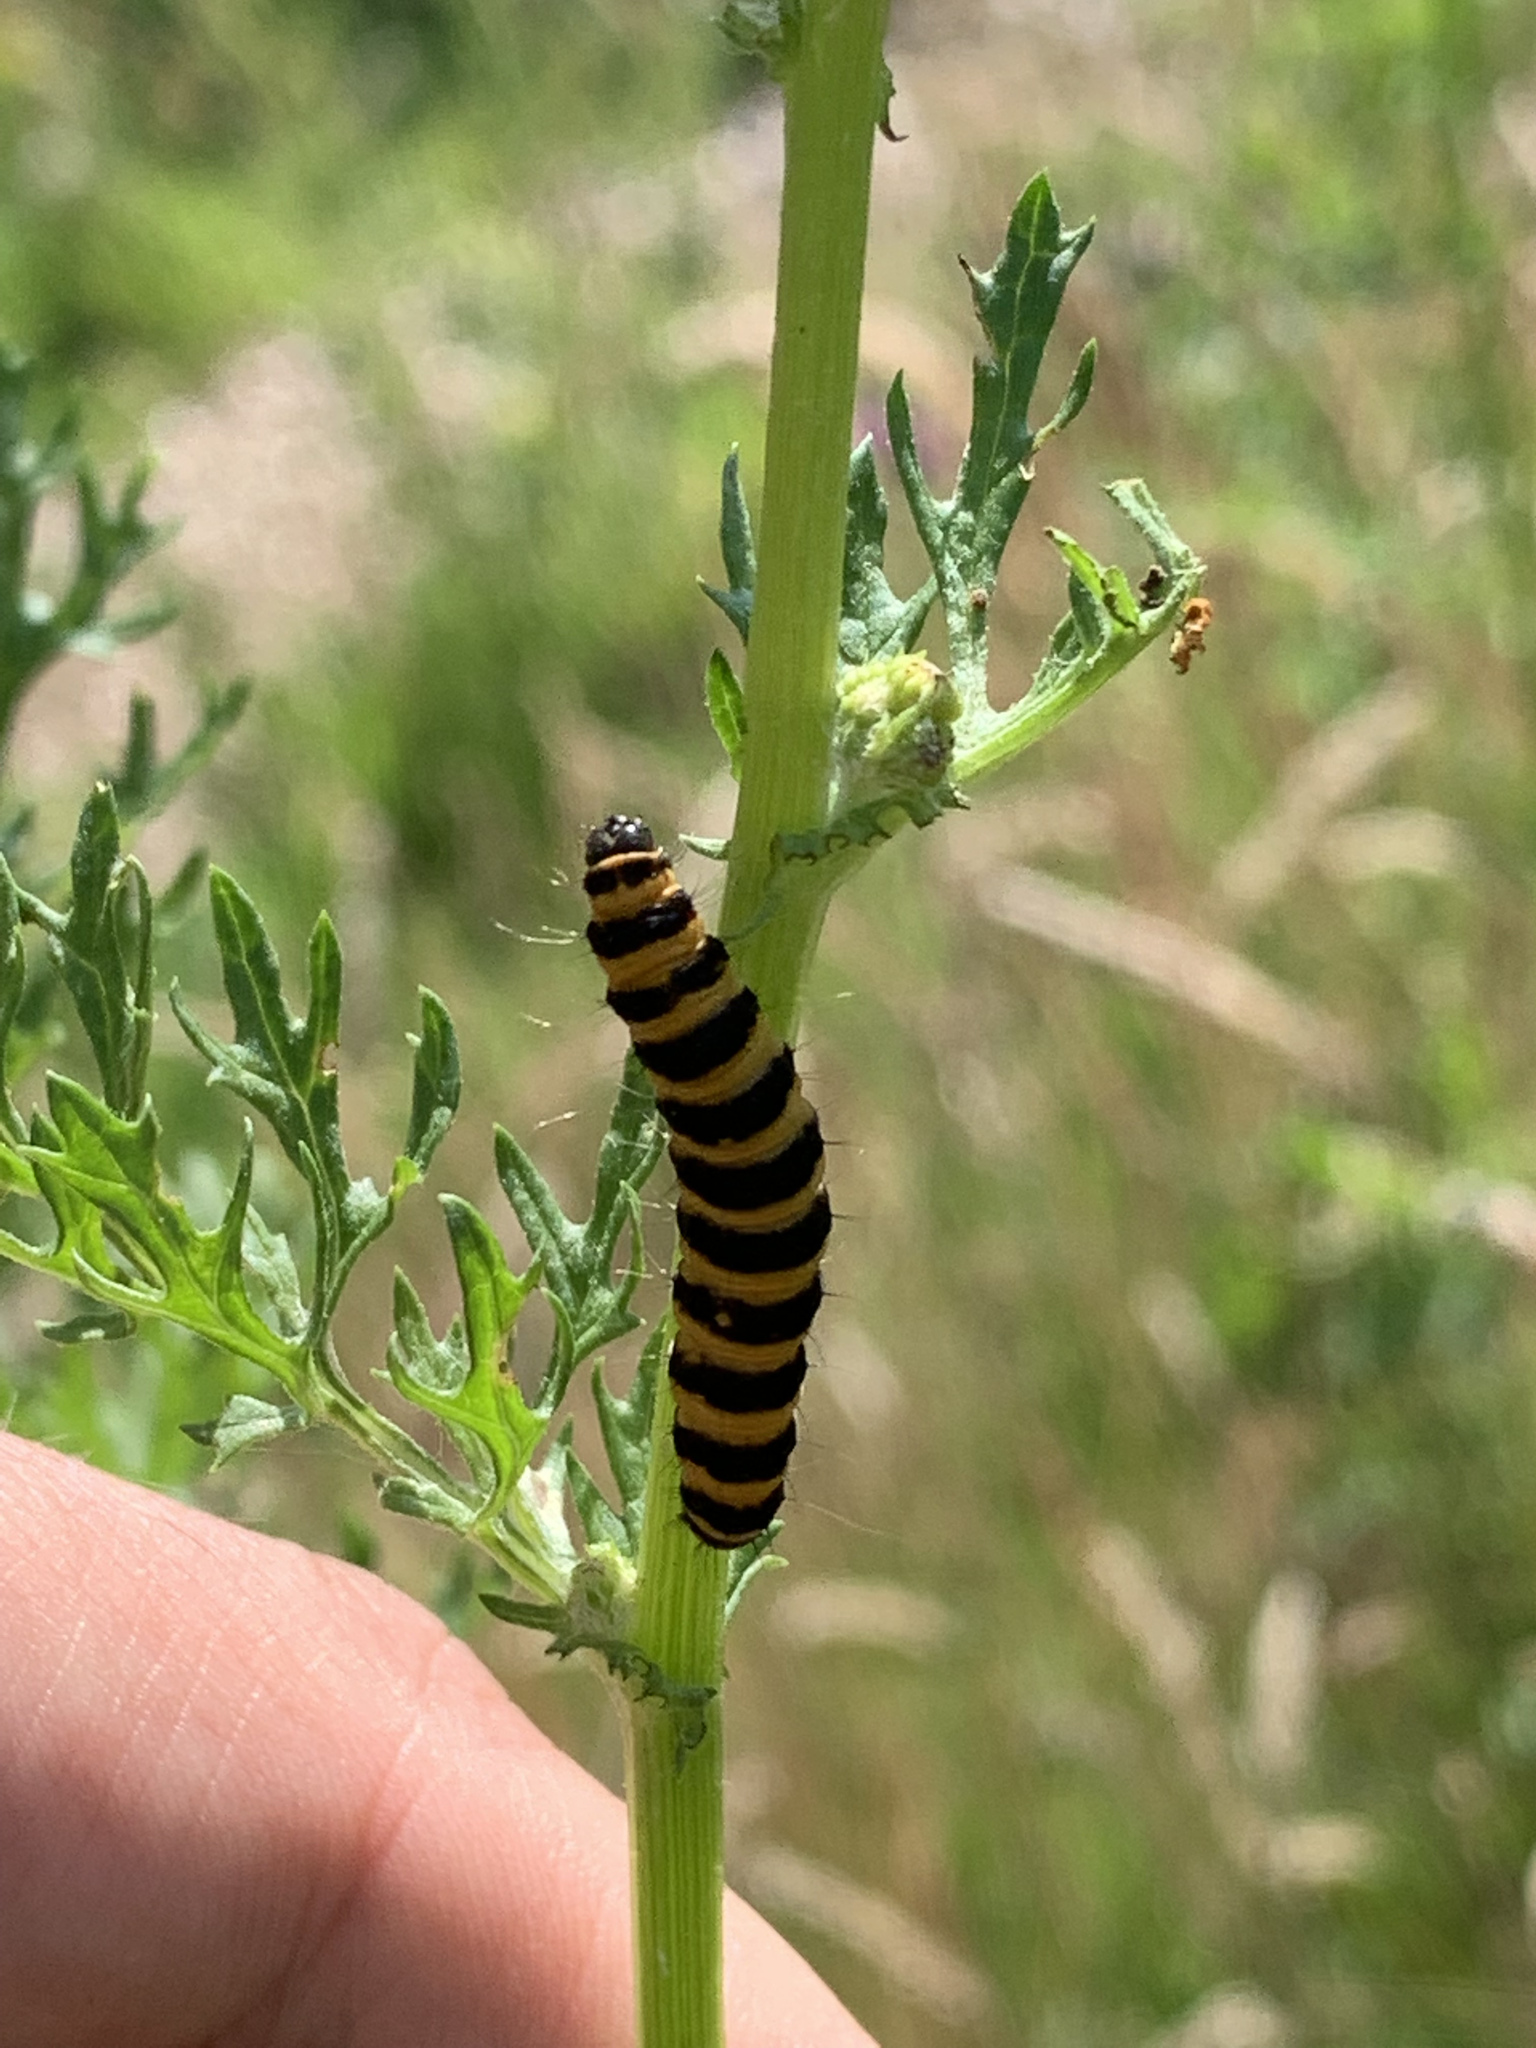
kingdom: Animalia
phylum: Arthropoda
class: Insecta
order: Lepidoptera
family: Erebidae
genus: Tyria
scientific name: Tyria jacobaeae
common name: Cinnabar
